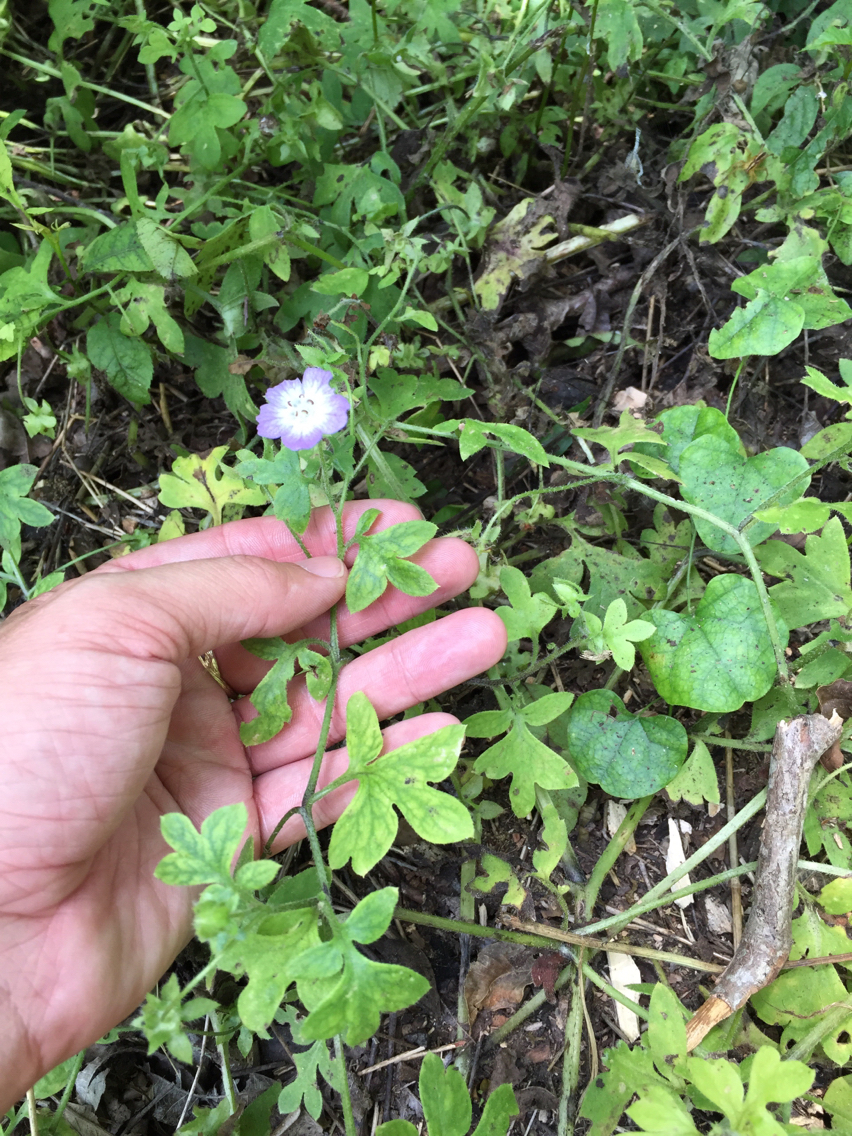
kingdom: Plantae
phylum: Tracheophyta
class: Magnoliopsida
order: Boraginales
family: Hydrophyllaceae
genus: Nemophila
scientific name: Nemophila phacelioides
